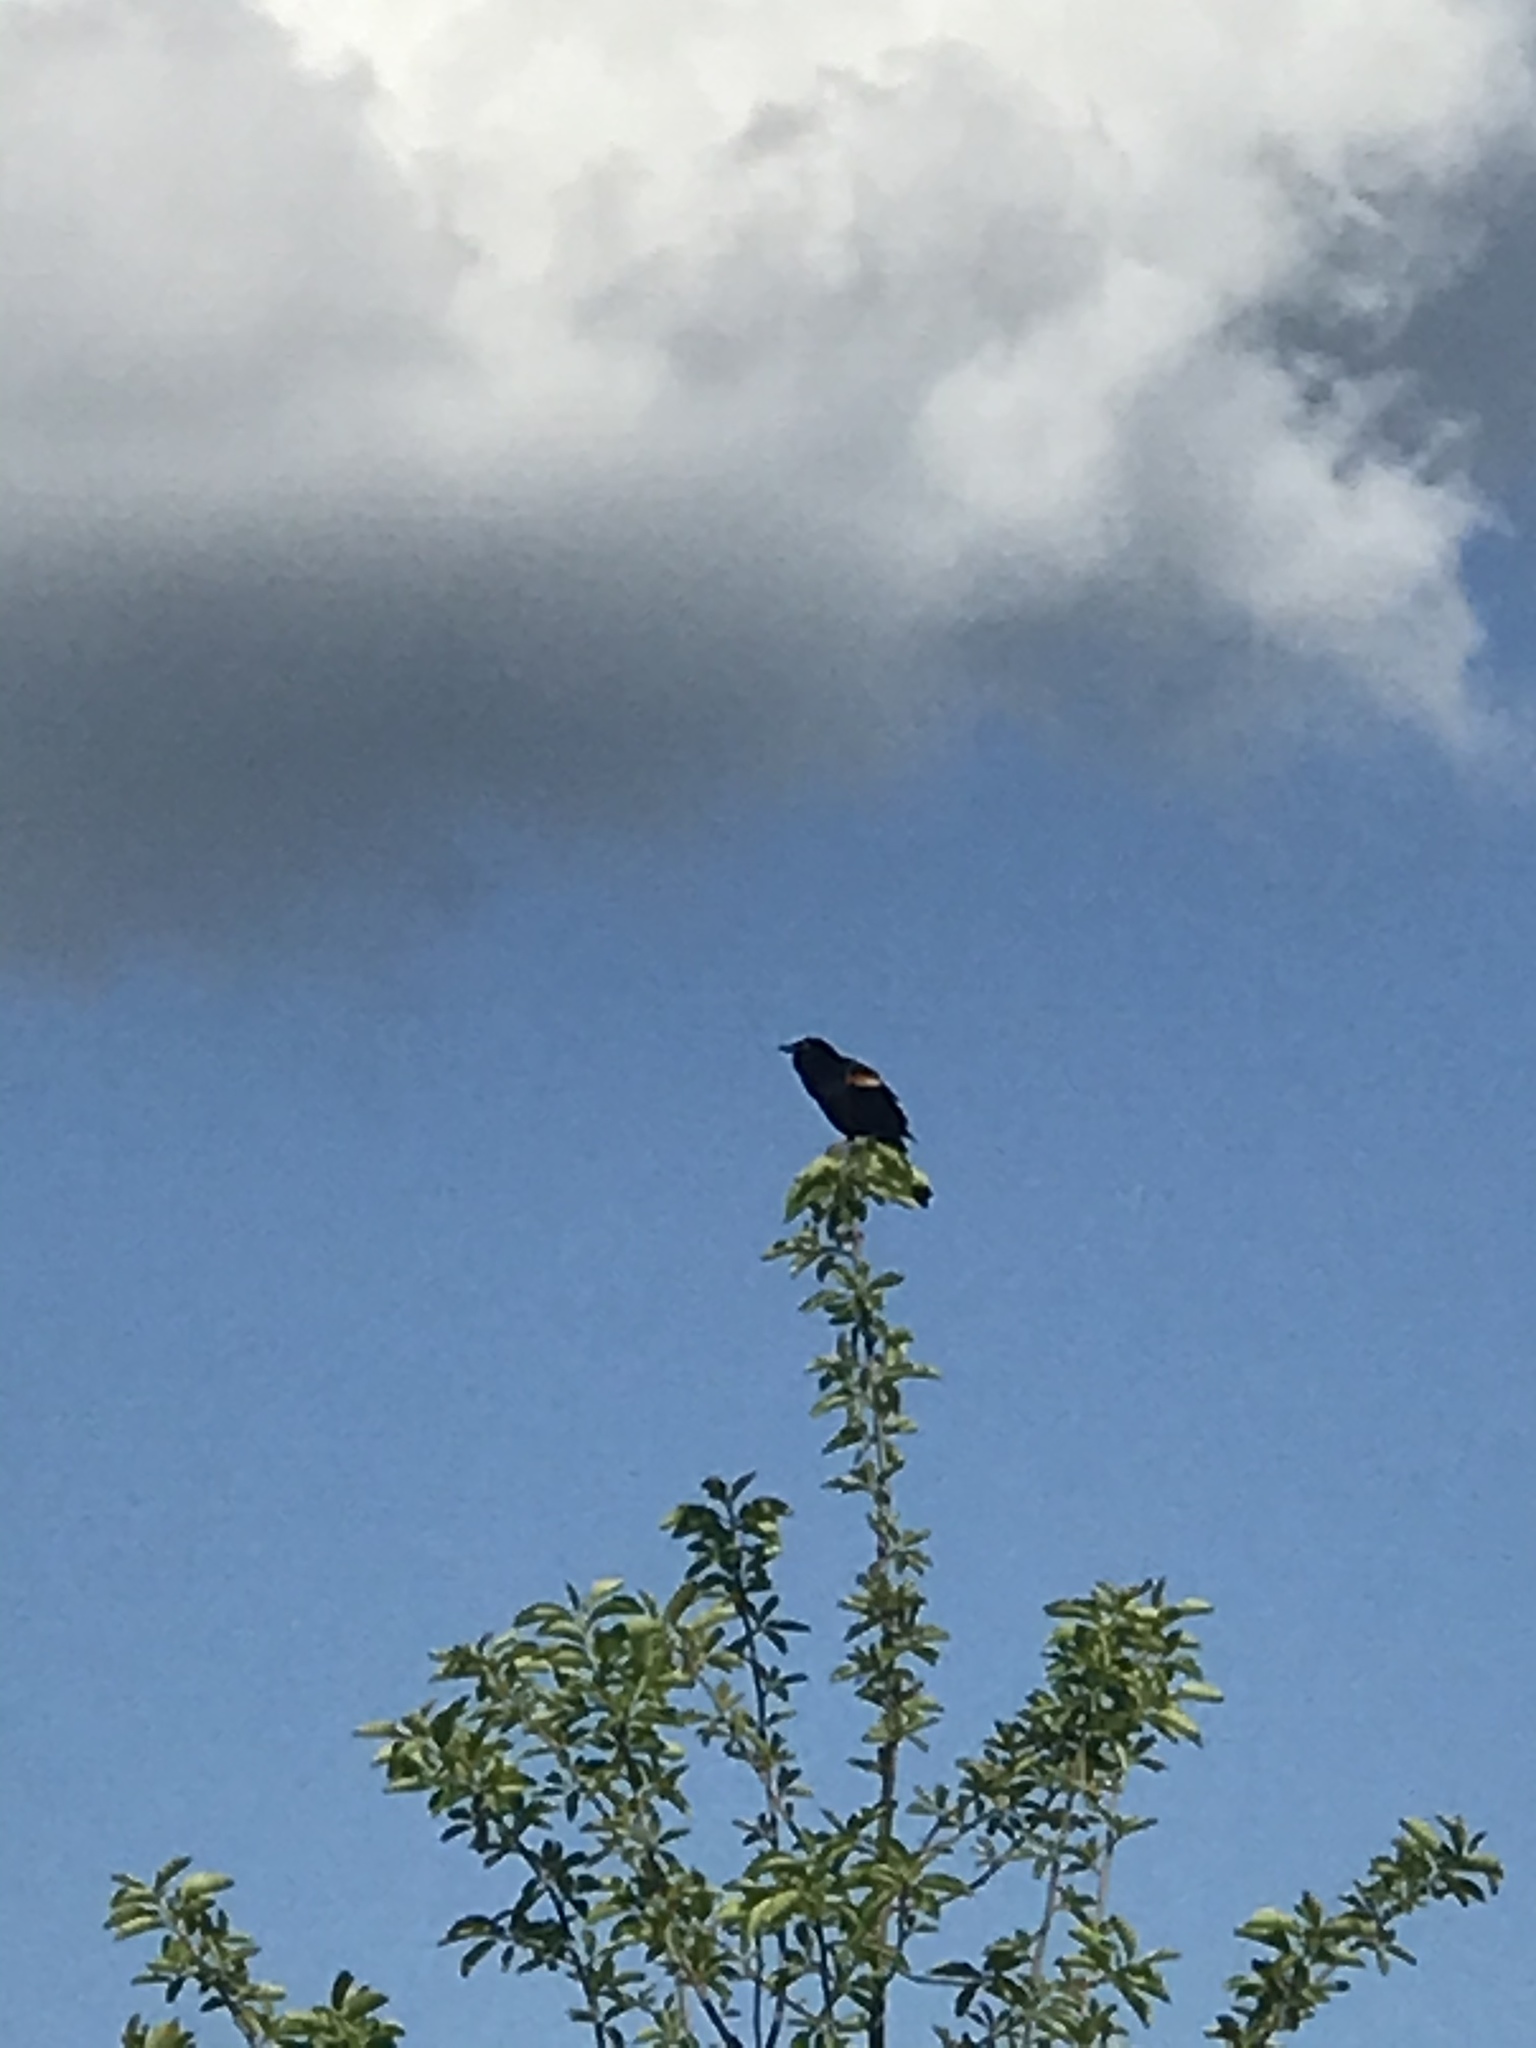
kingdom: Animalia
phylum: Chordata
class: Aves
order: Passeriformes
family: Icteridae
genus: Agelaius
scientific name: Agelaius phoeniceus
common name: Red-winged blackbird
